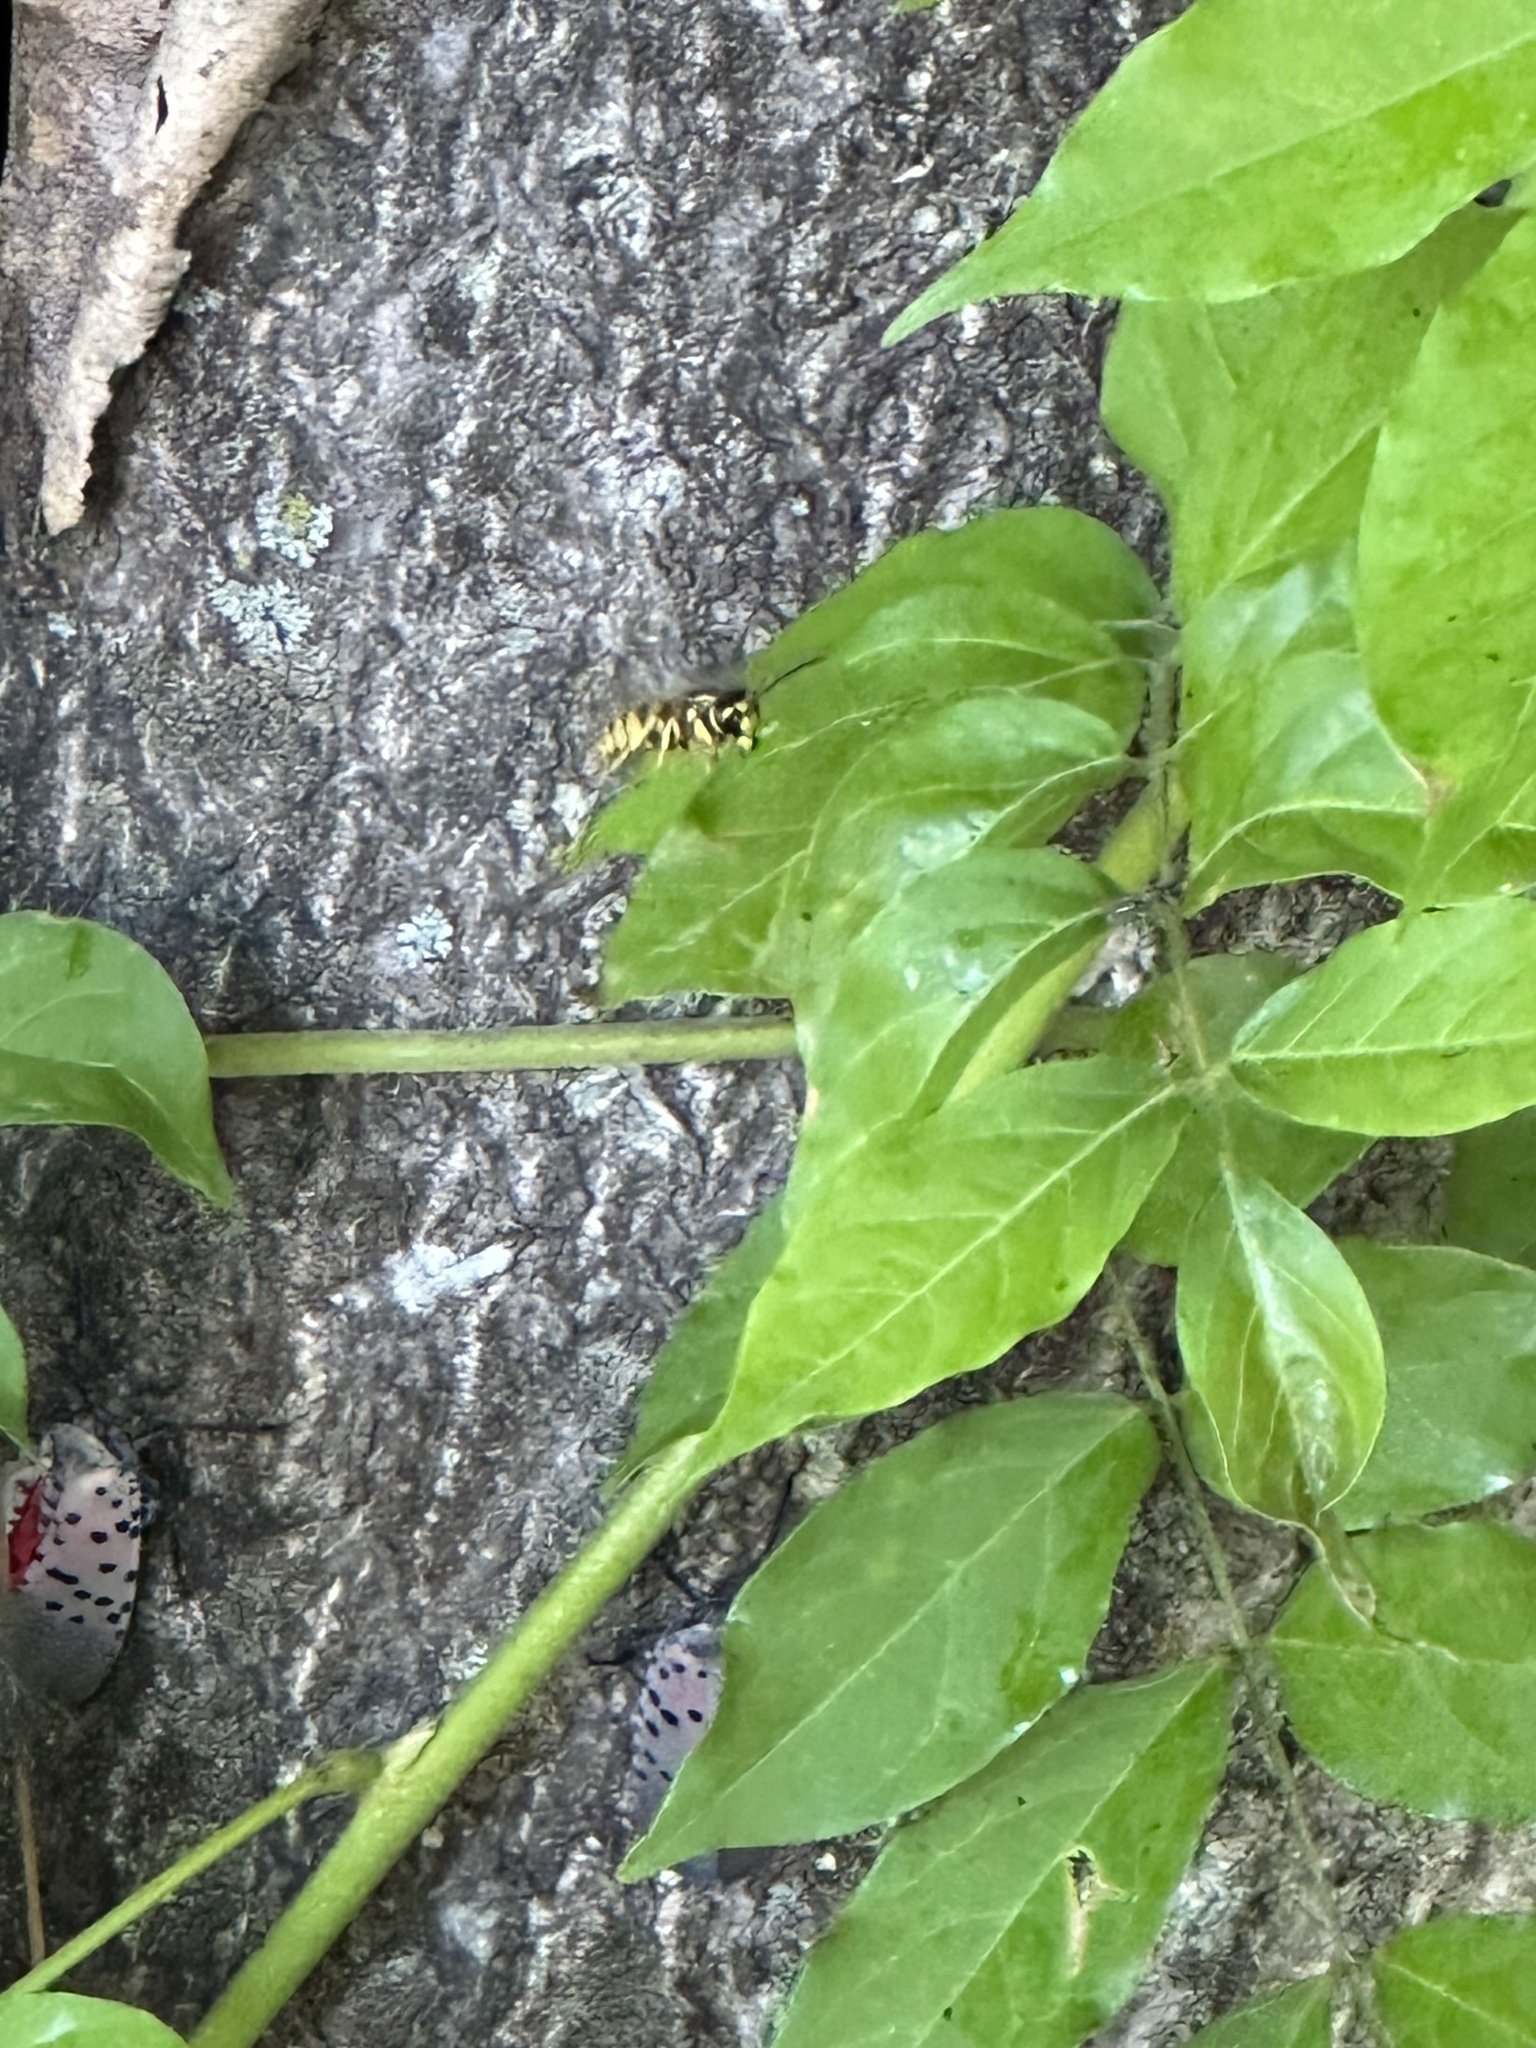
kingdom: Animalia
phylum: Arthropoda
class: Insecta
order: Hymenoptera
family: Vespidae
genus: Vespula
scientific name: Vespula flavopilosa
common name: Downy yellowjacket
